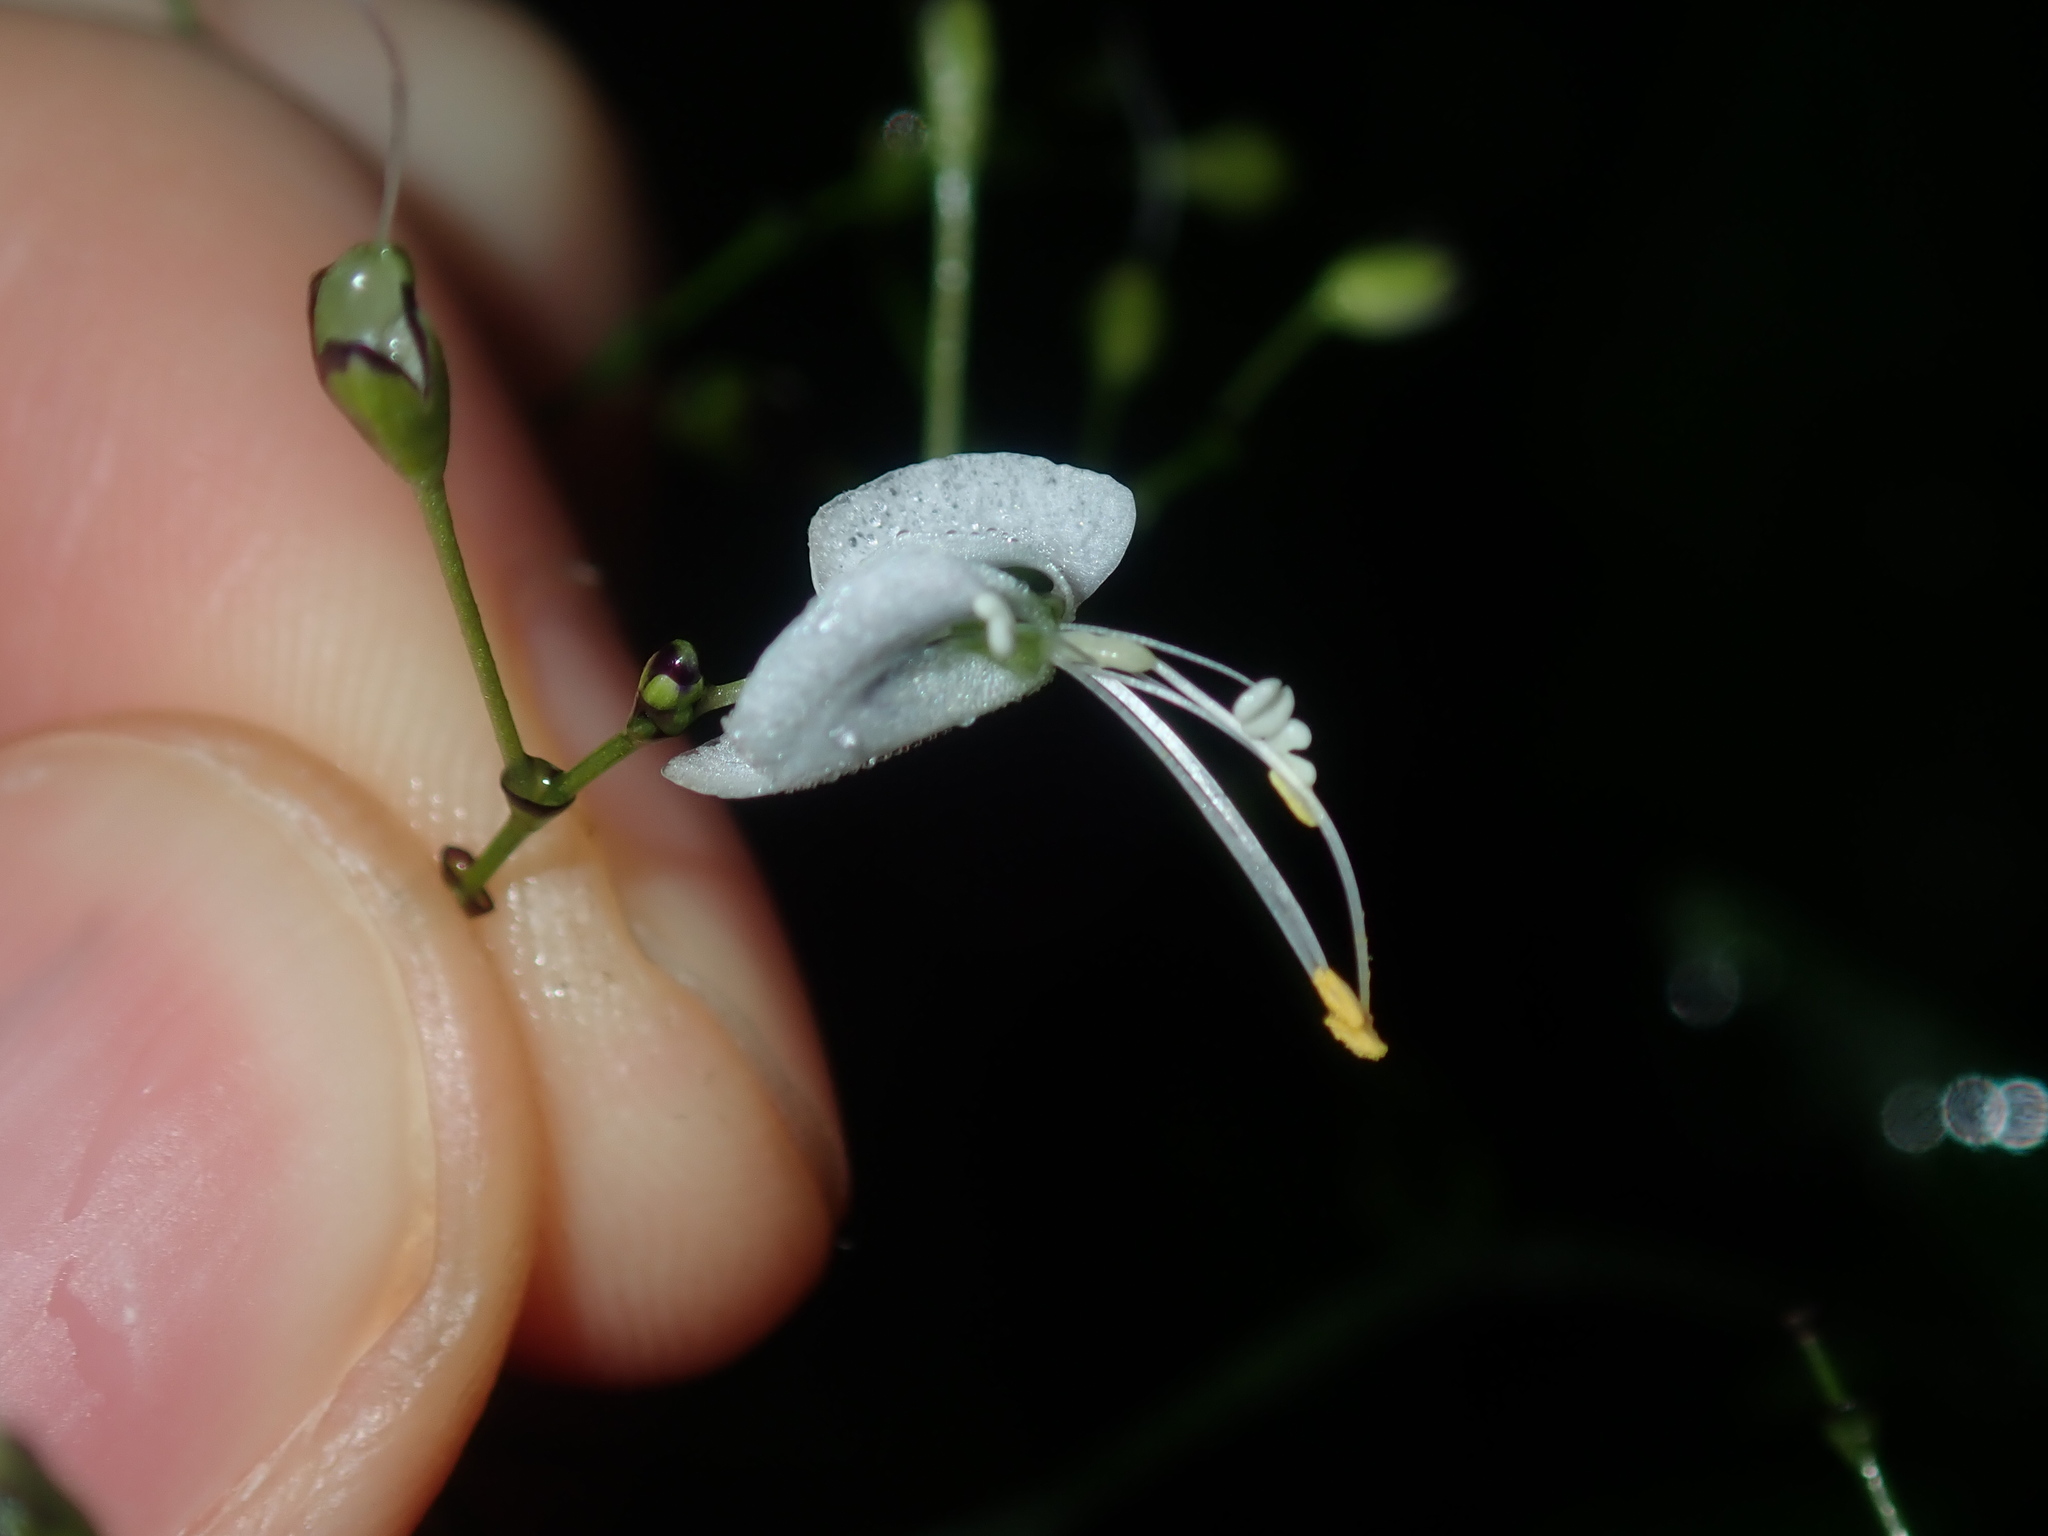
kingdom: Plantae
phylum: Tracheophyta
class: Liliopsida
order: Commelinales
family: Commelinaceae
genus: Aneilema
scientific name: Aneilema acuminatum
